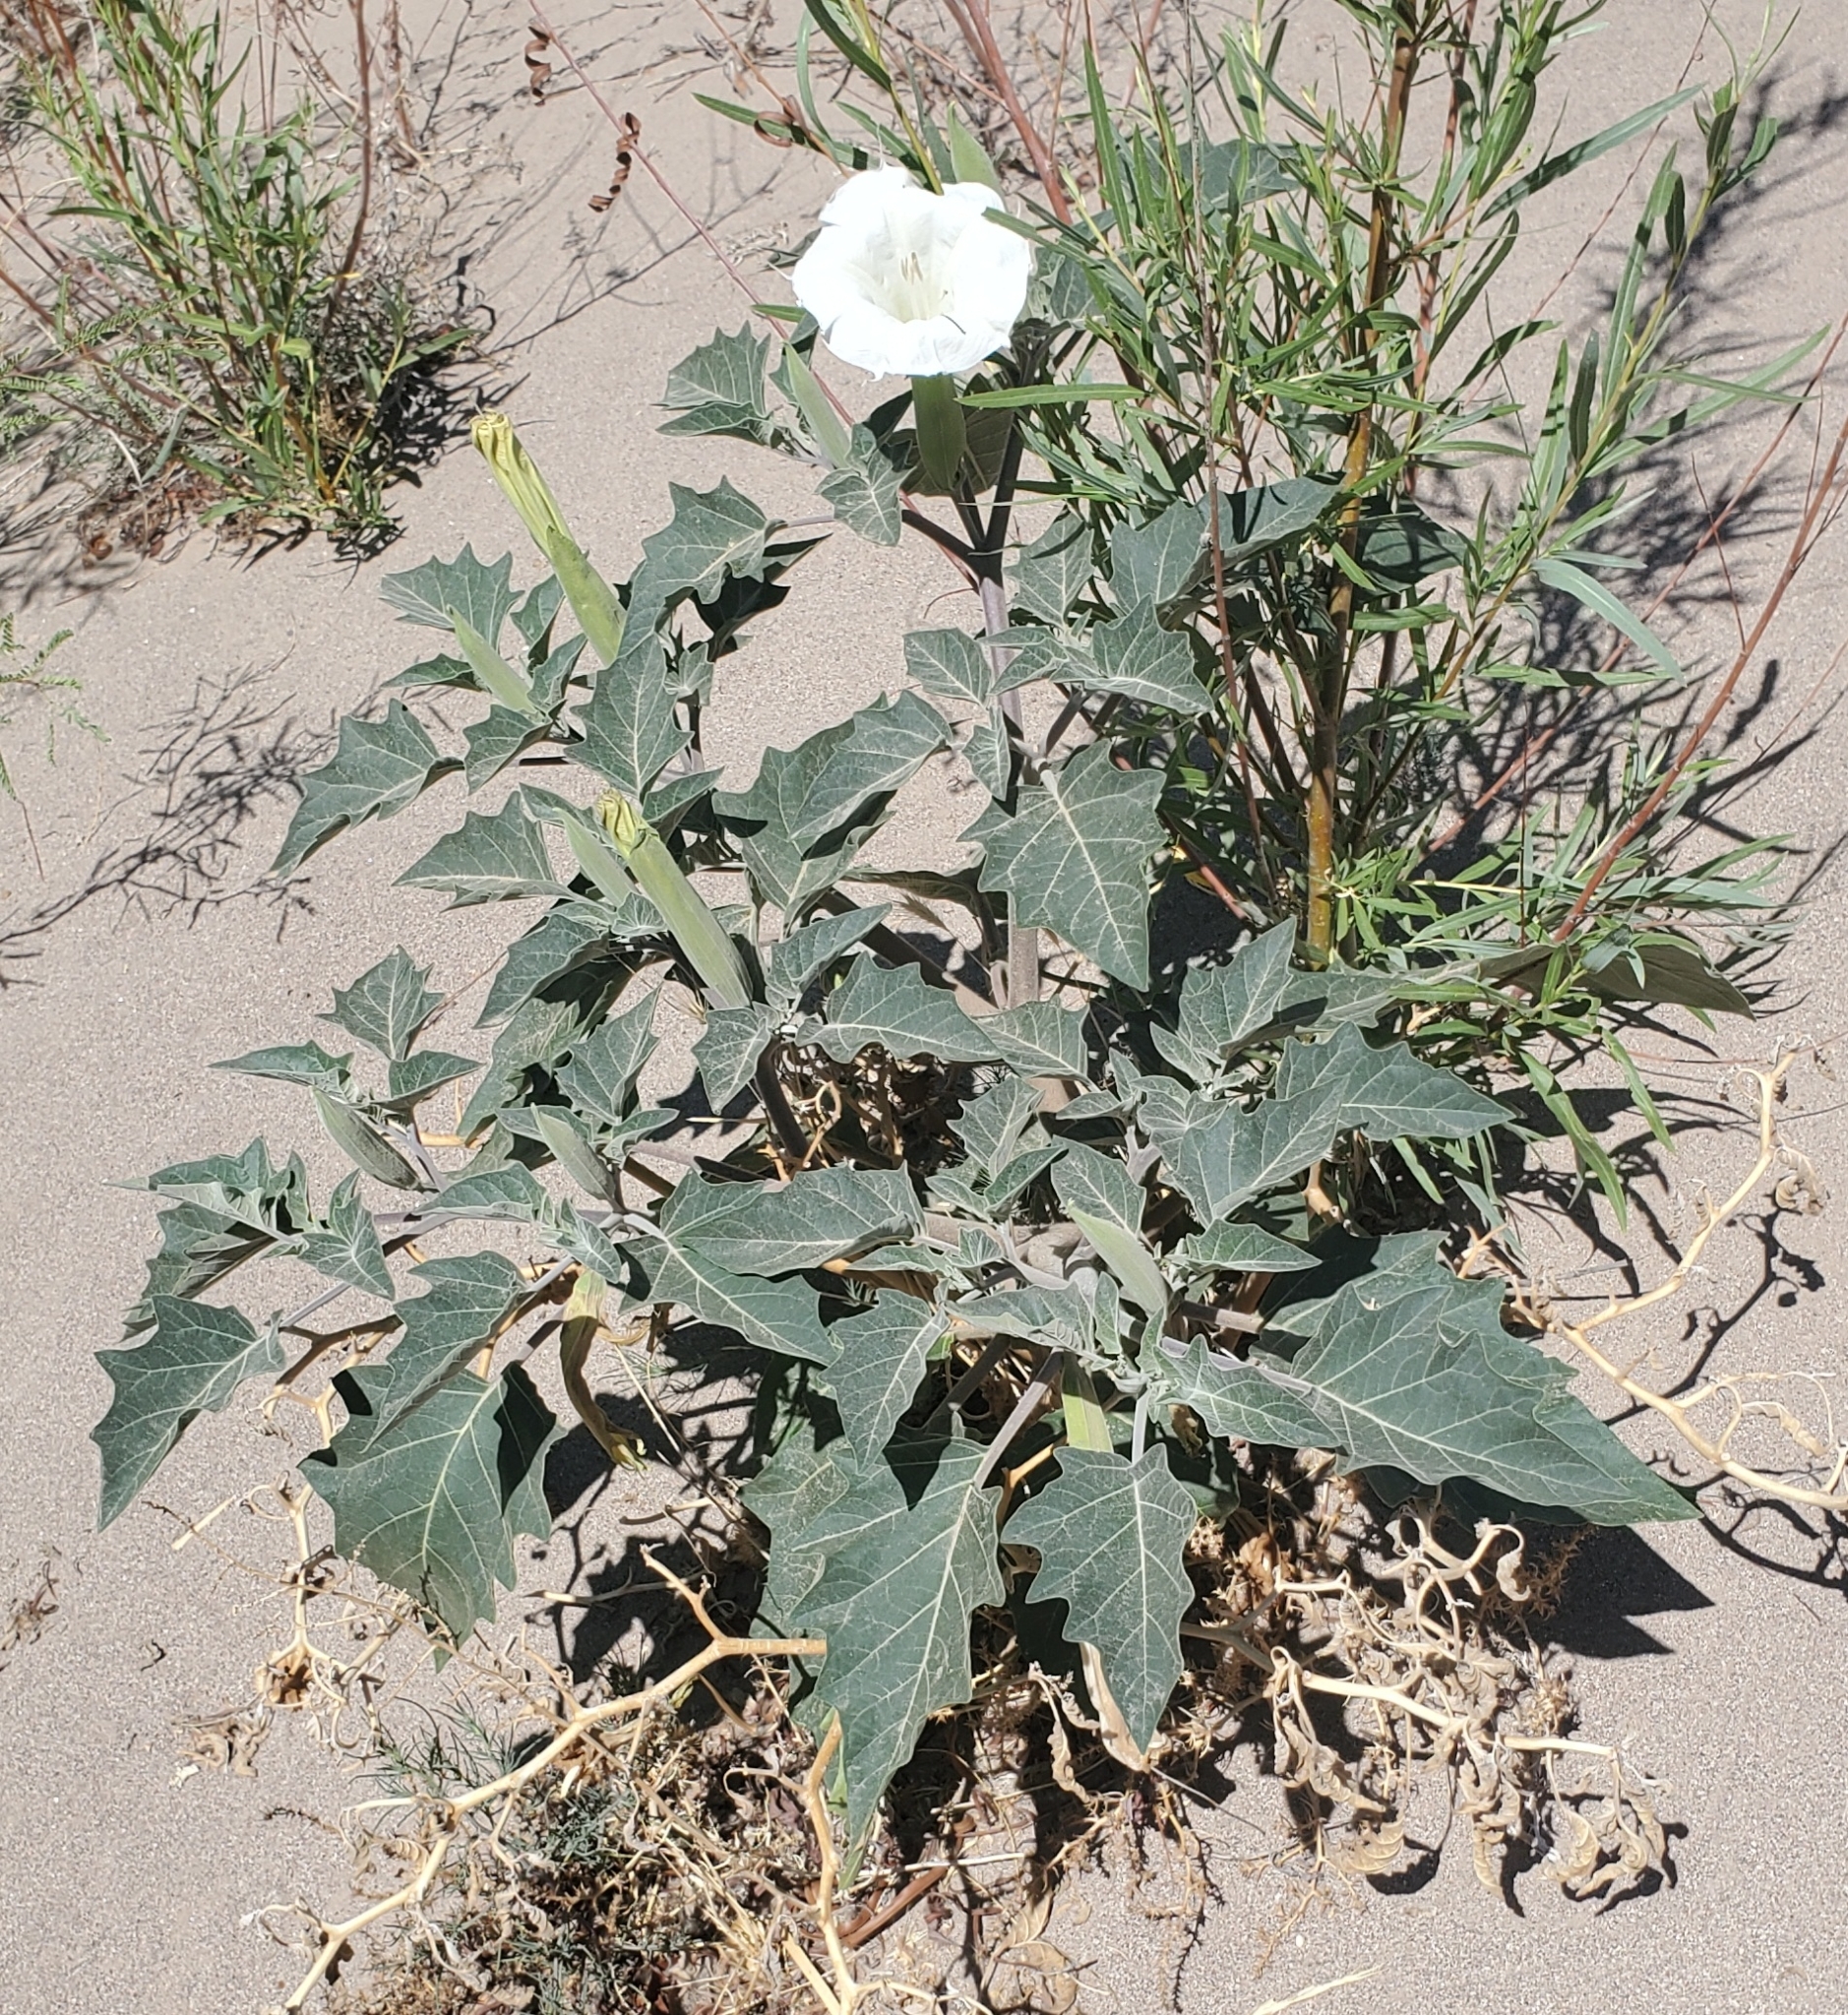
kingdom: Plantae
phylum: Tracheophyta
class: Magnoliopsida
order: Solanales
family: Solanaceae
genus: Datura
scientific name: Datura wrightii
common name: Sacred thorn-apple
